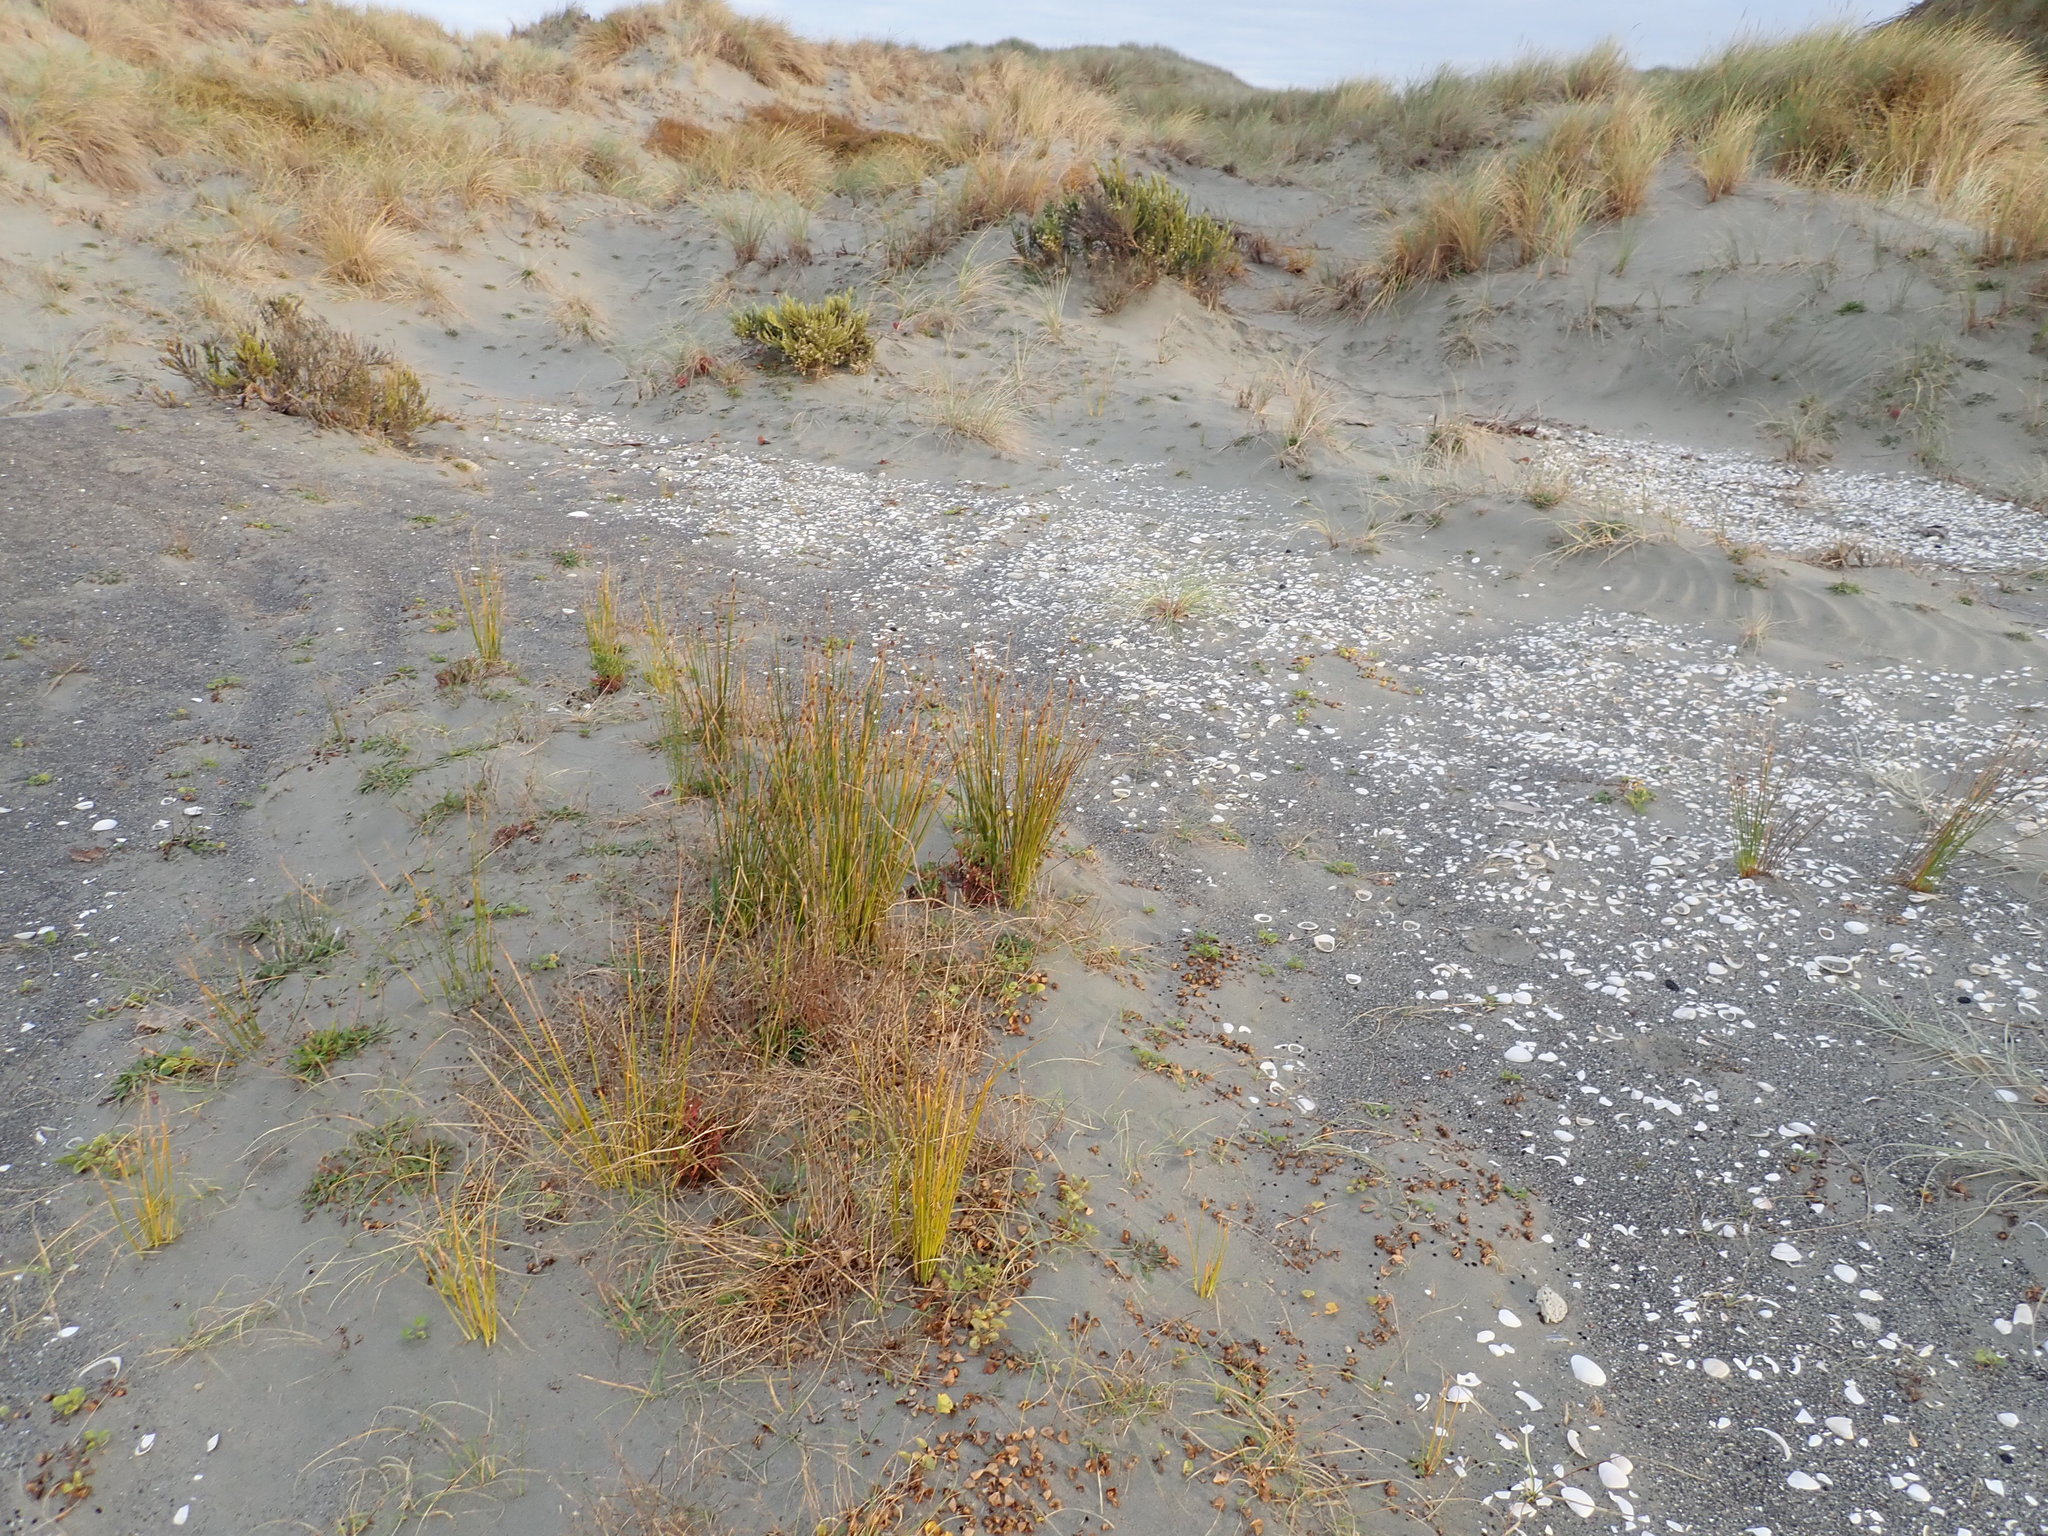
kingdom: Plantae
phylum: Tracheophyta
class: Liliopsida
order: Poales
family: Cyperaceae
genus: Ficinia
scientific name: Ficinia nodosa
